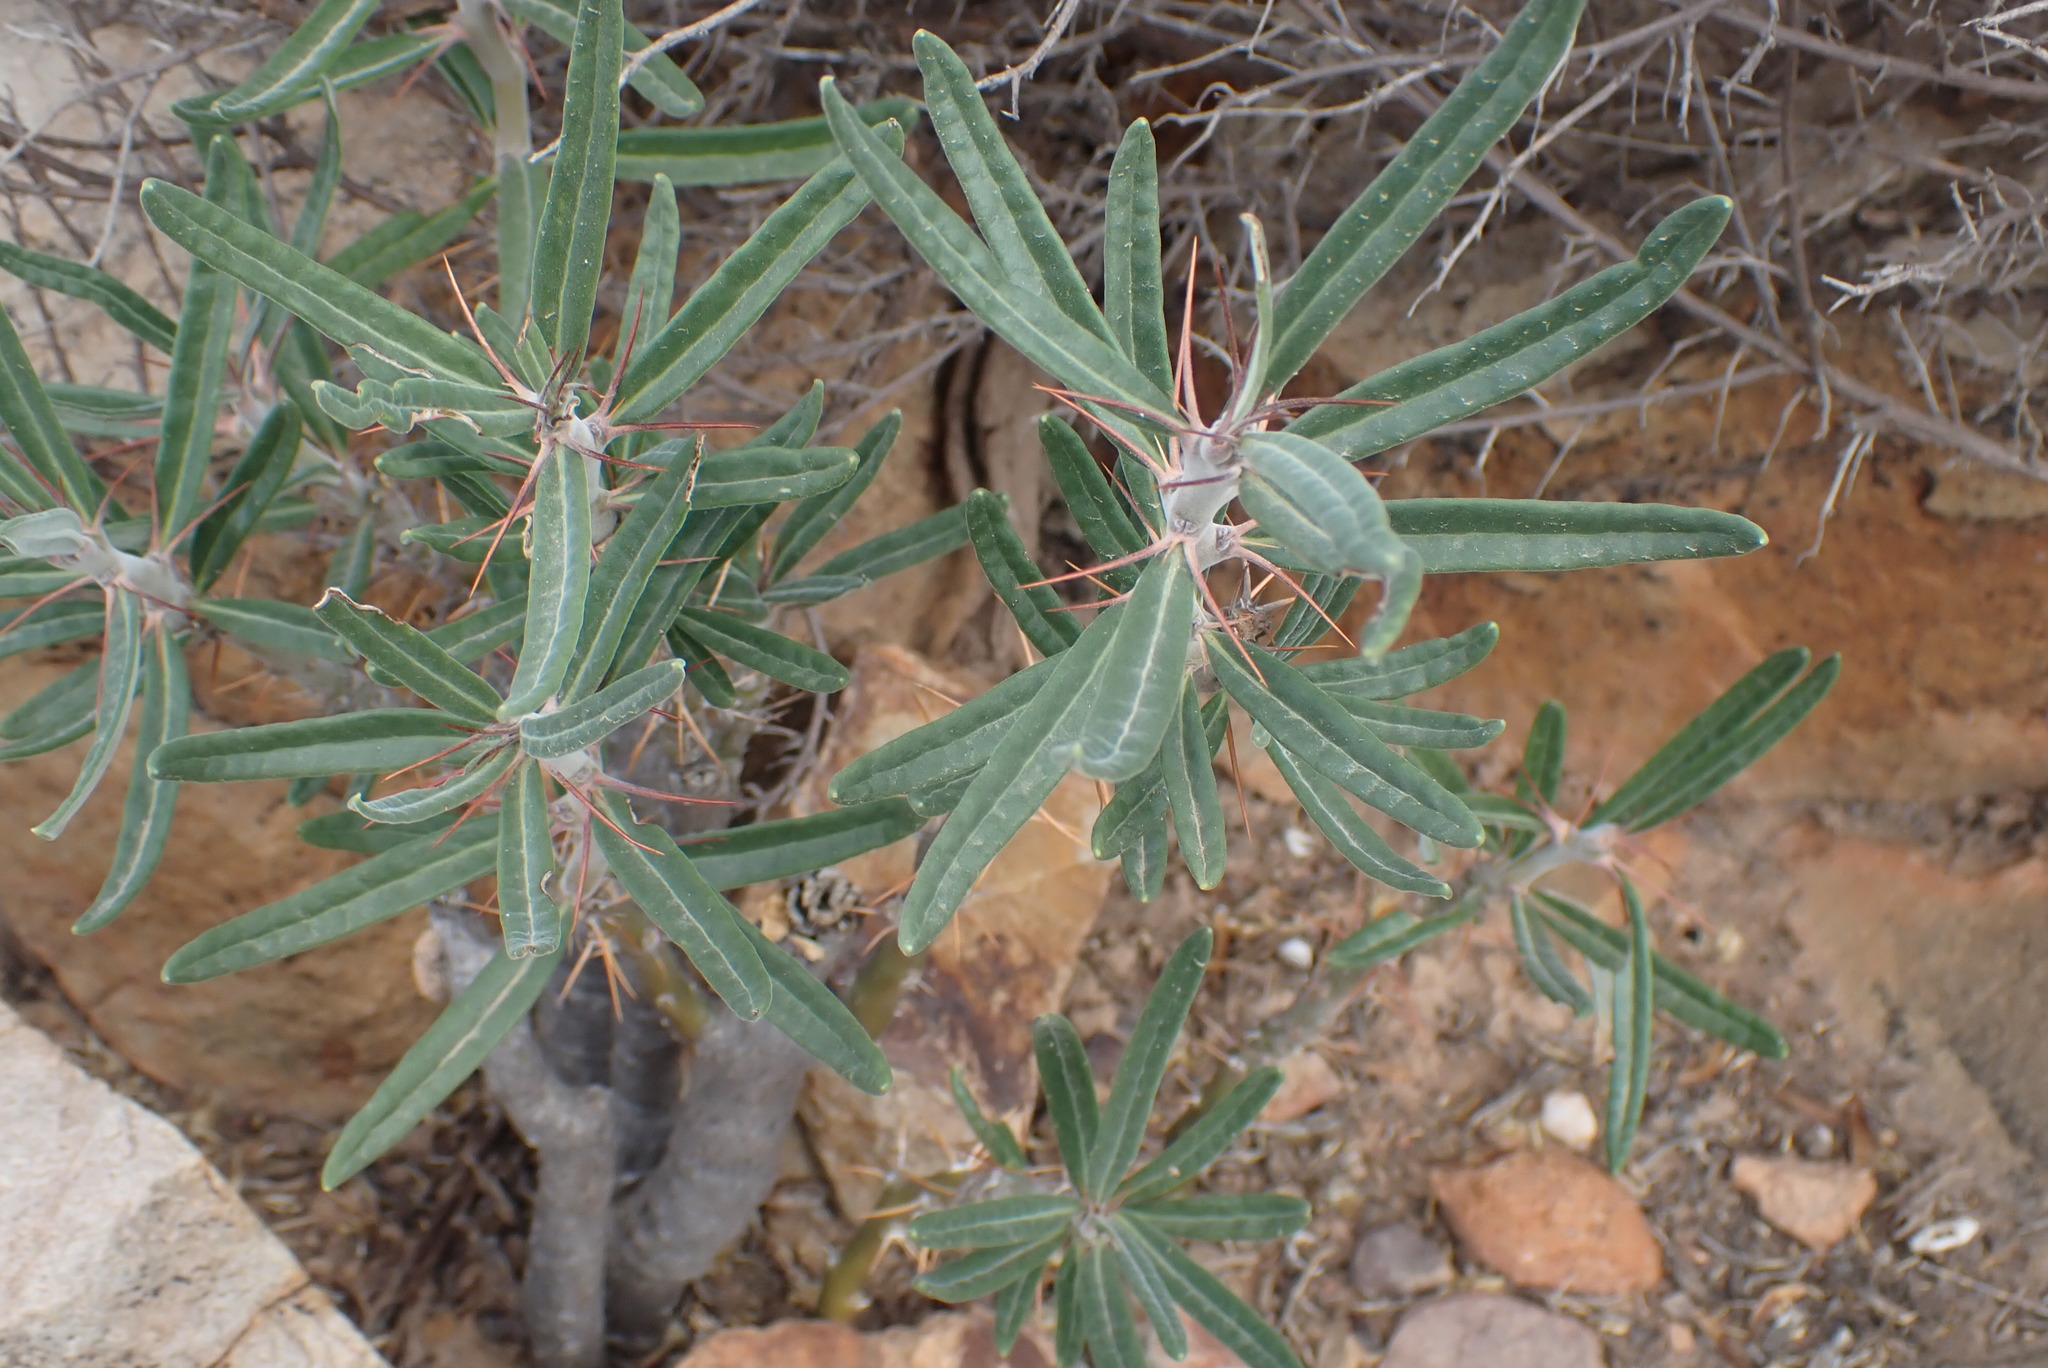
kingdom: Plantae
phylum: Tracheophyta
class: Magnoliopsida
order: Gentianales
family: Apocynaceae
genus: Pachypodium
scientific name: Pachypodium bispinosum
